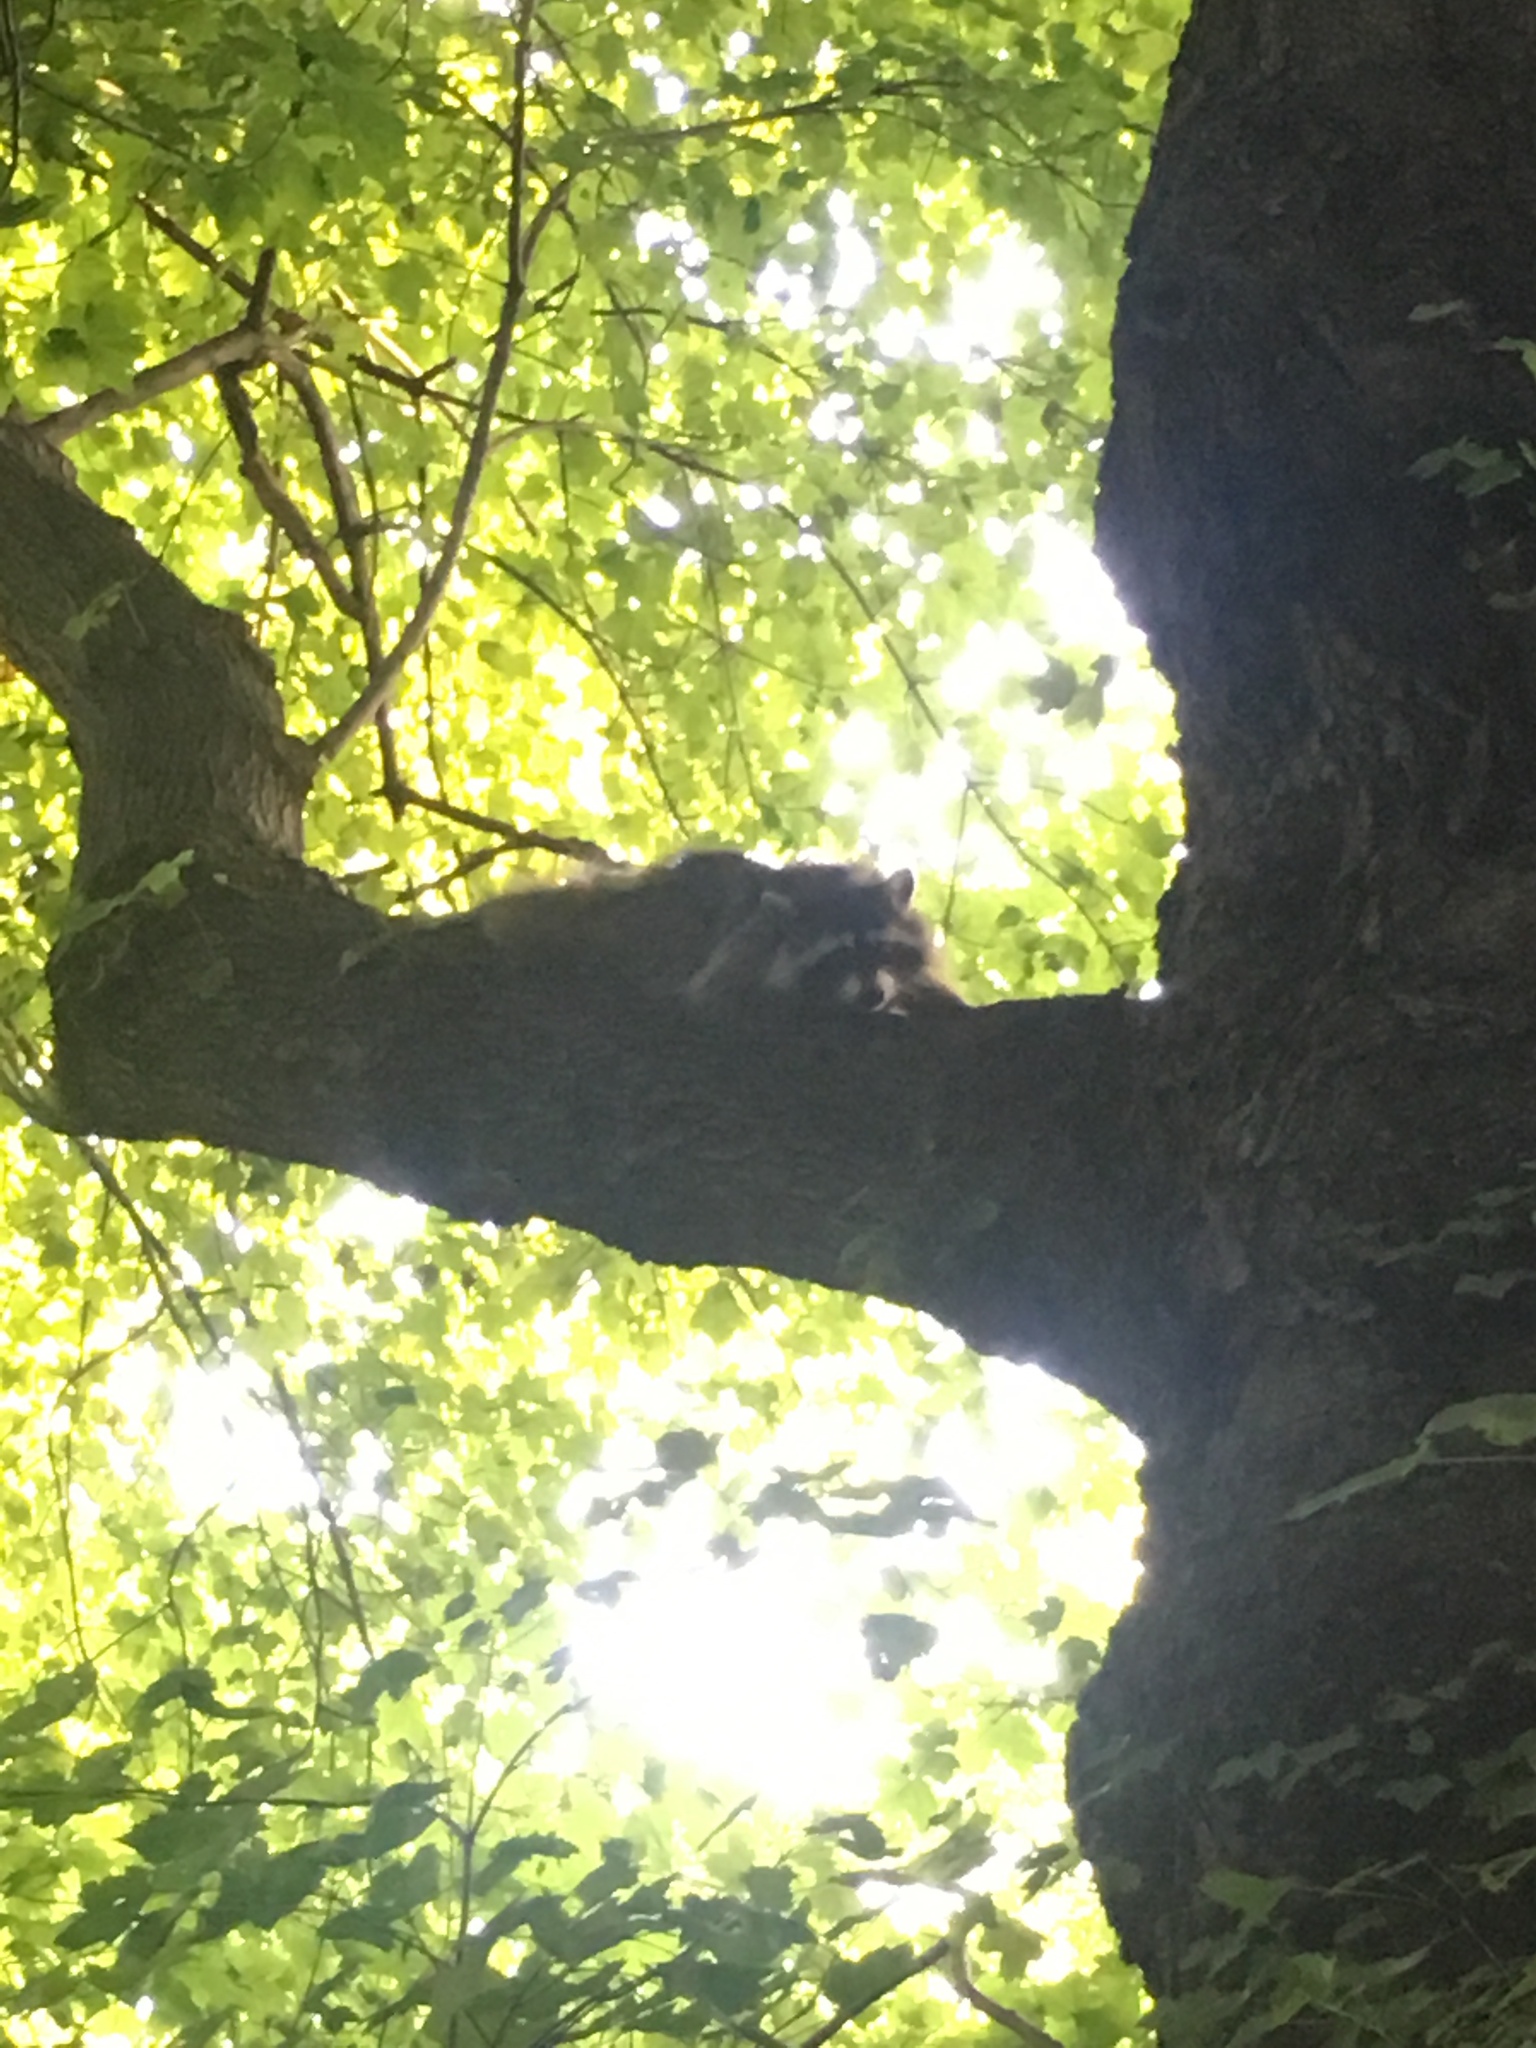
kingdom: Animalia
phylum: Chordata
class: Mammalia
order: Carnivora
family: Procyonidae
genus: Procyon
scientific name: Procyon lotor
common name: Raccoon
